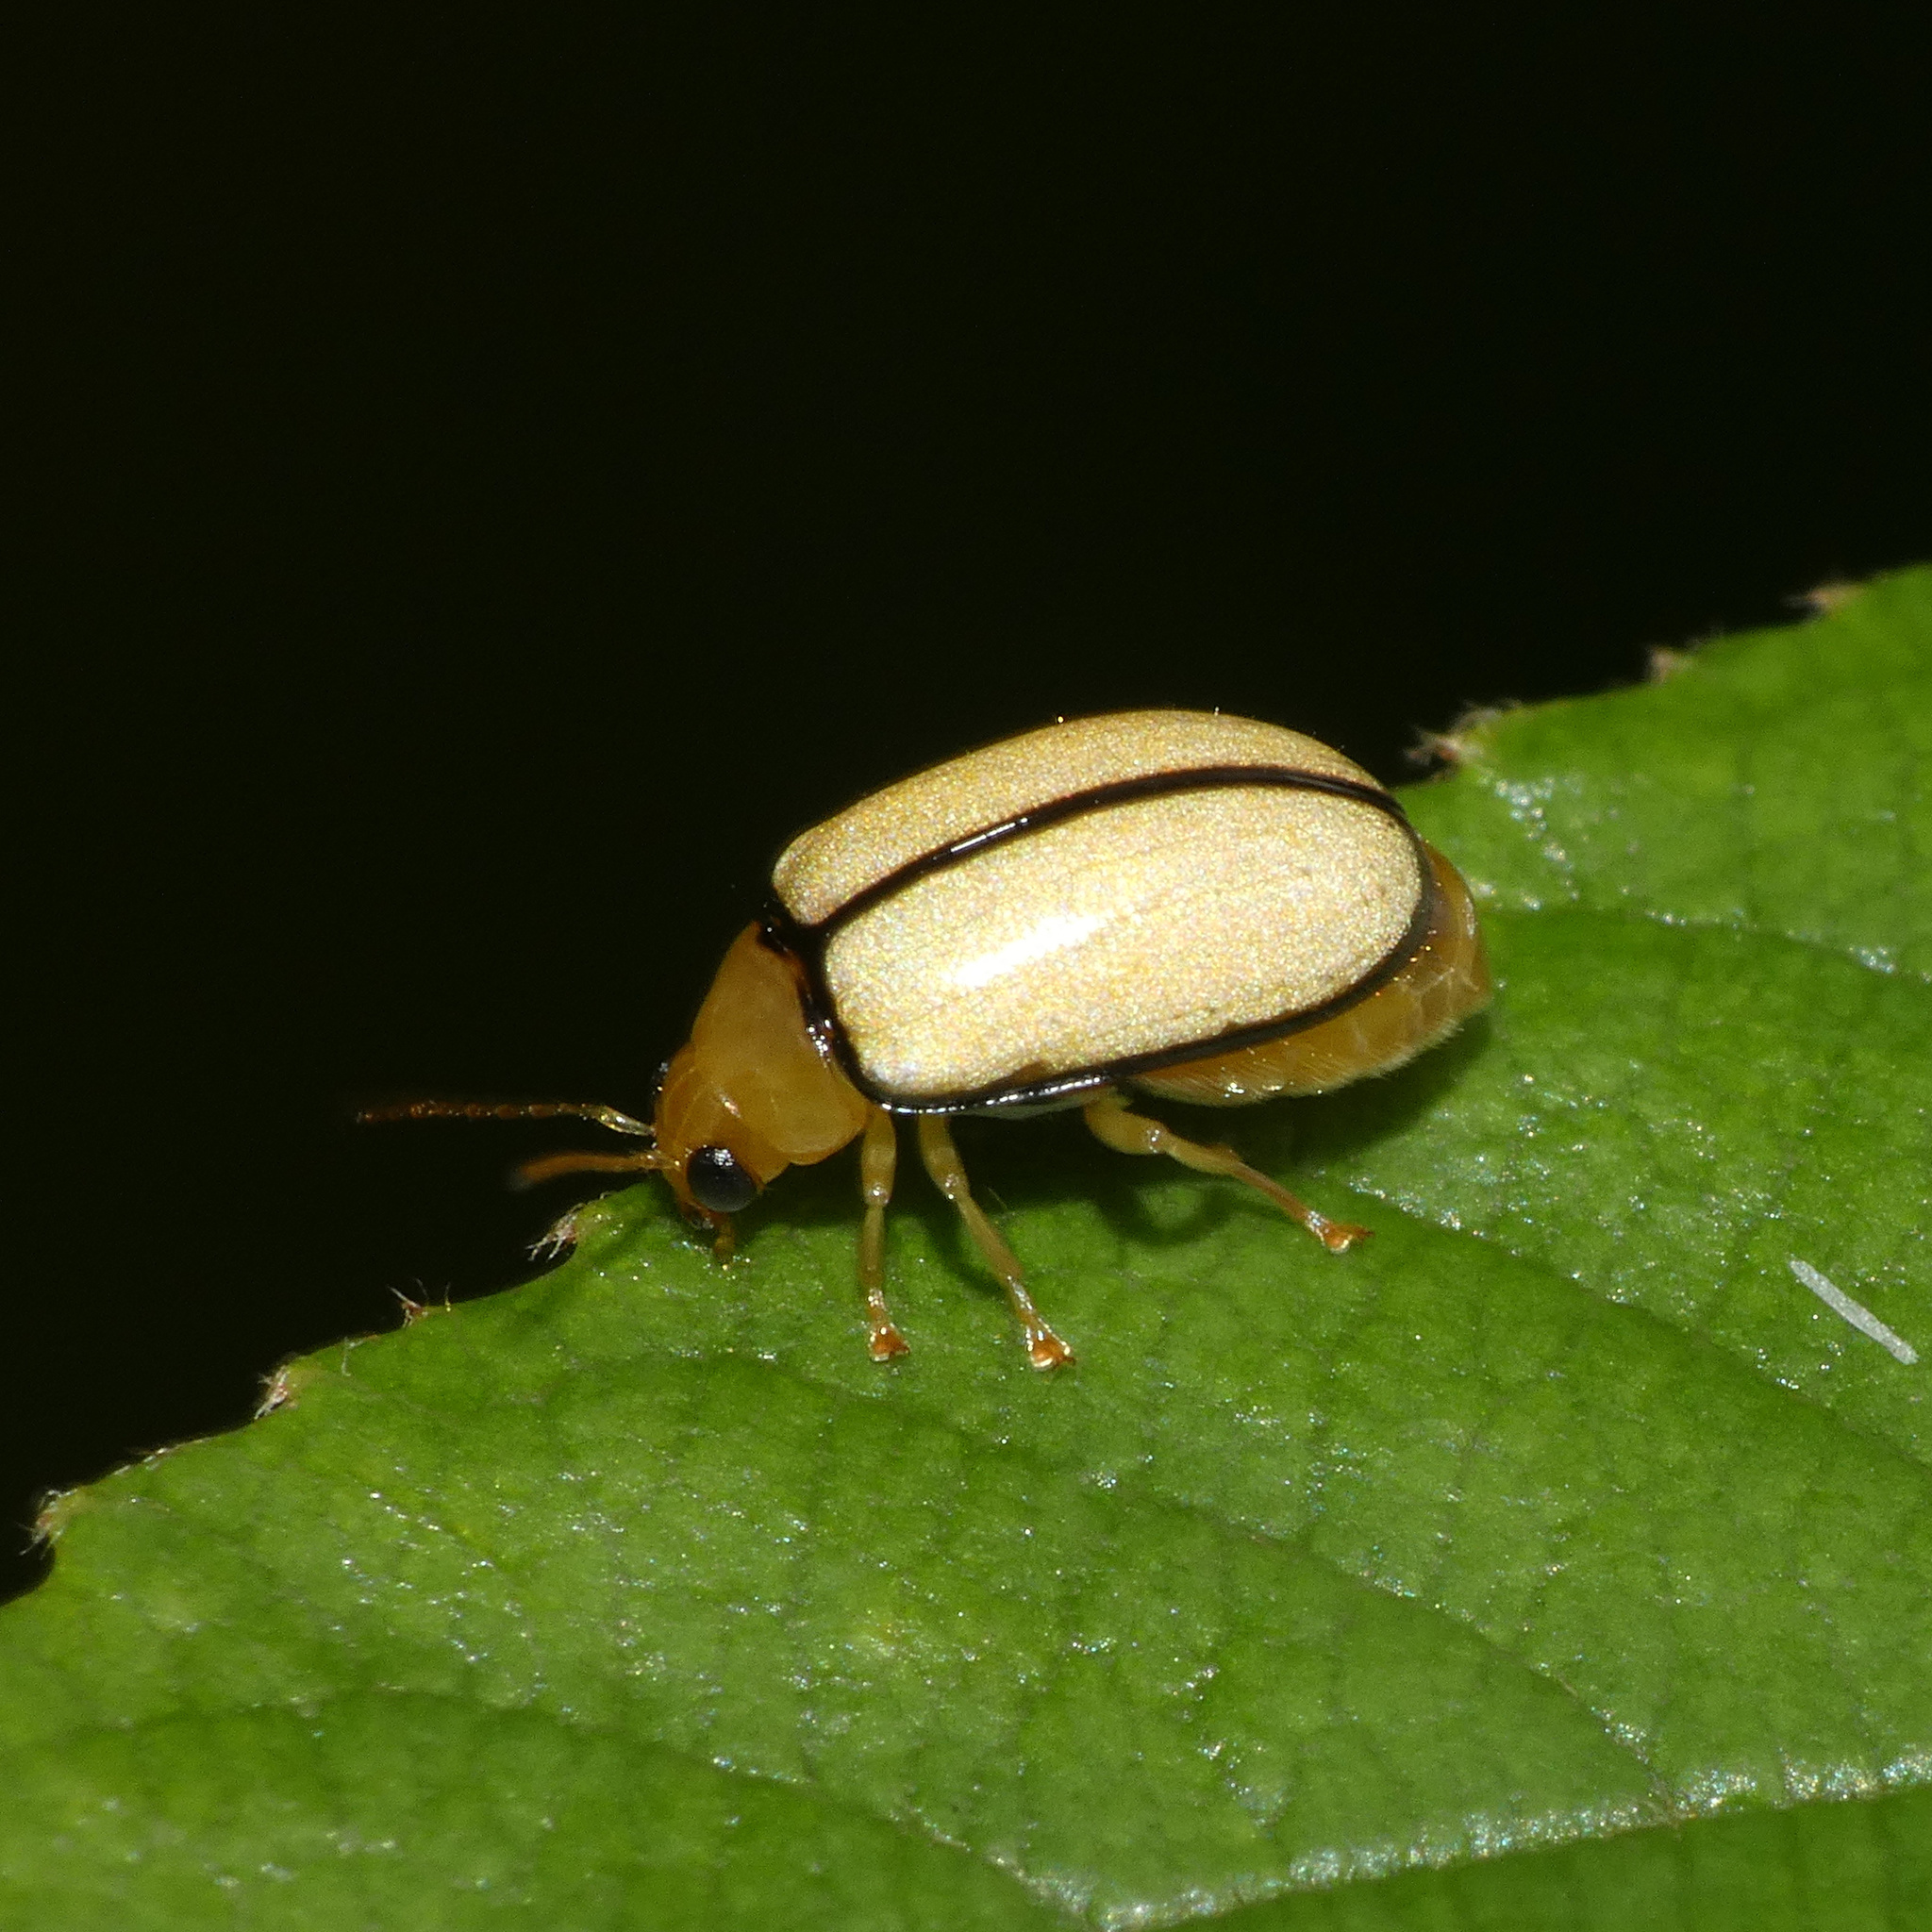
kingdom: Animalia
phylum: Arthropoda
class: Insecta
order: Coleoptera
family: Chrysomelidae
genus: Panafrolepta
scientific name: Panafrolepta
